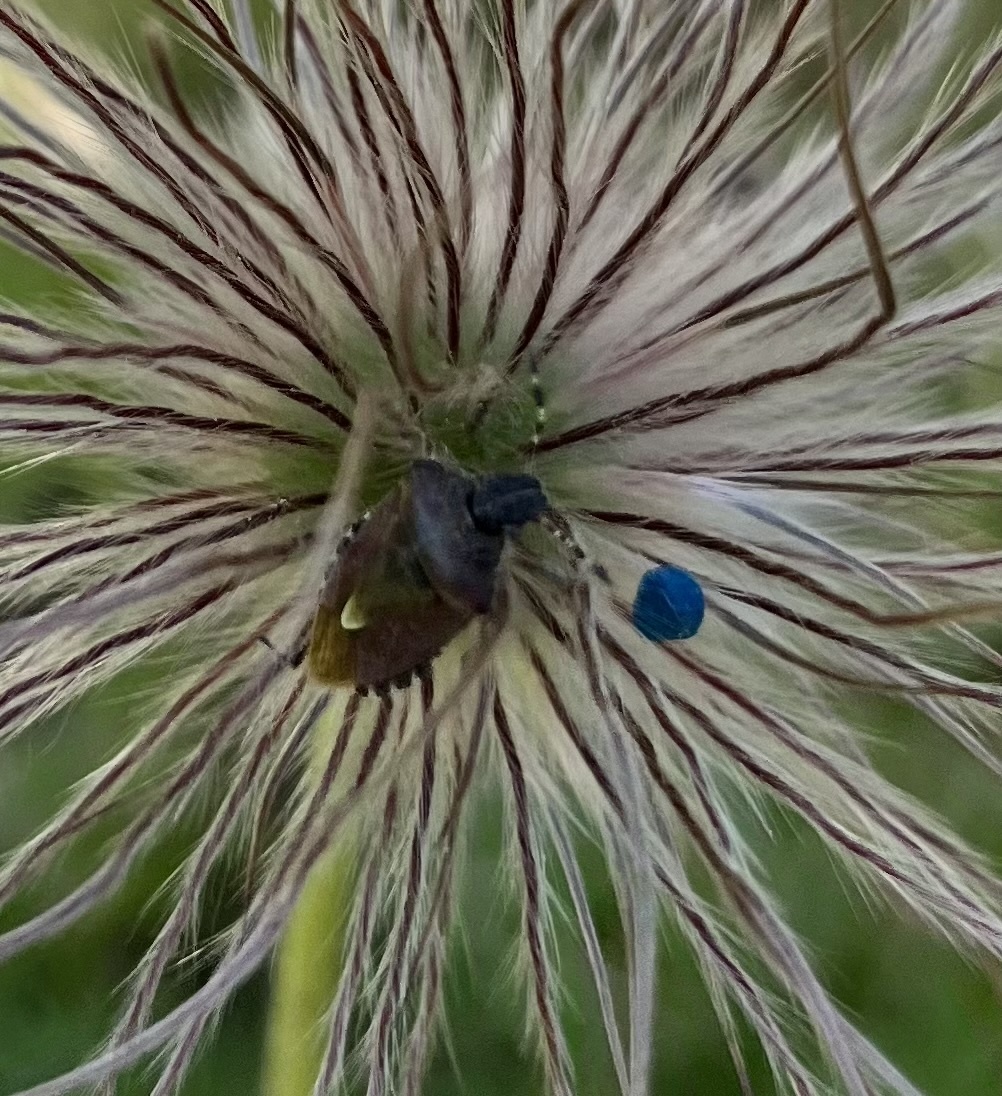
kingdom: Animalia
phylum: Arthropoda
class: Insecta
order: Hemiptera
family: Pentatomidae
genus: Dolycoris
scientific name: Dolycoris baccarum
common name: Sloe bug
